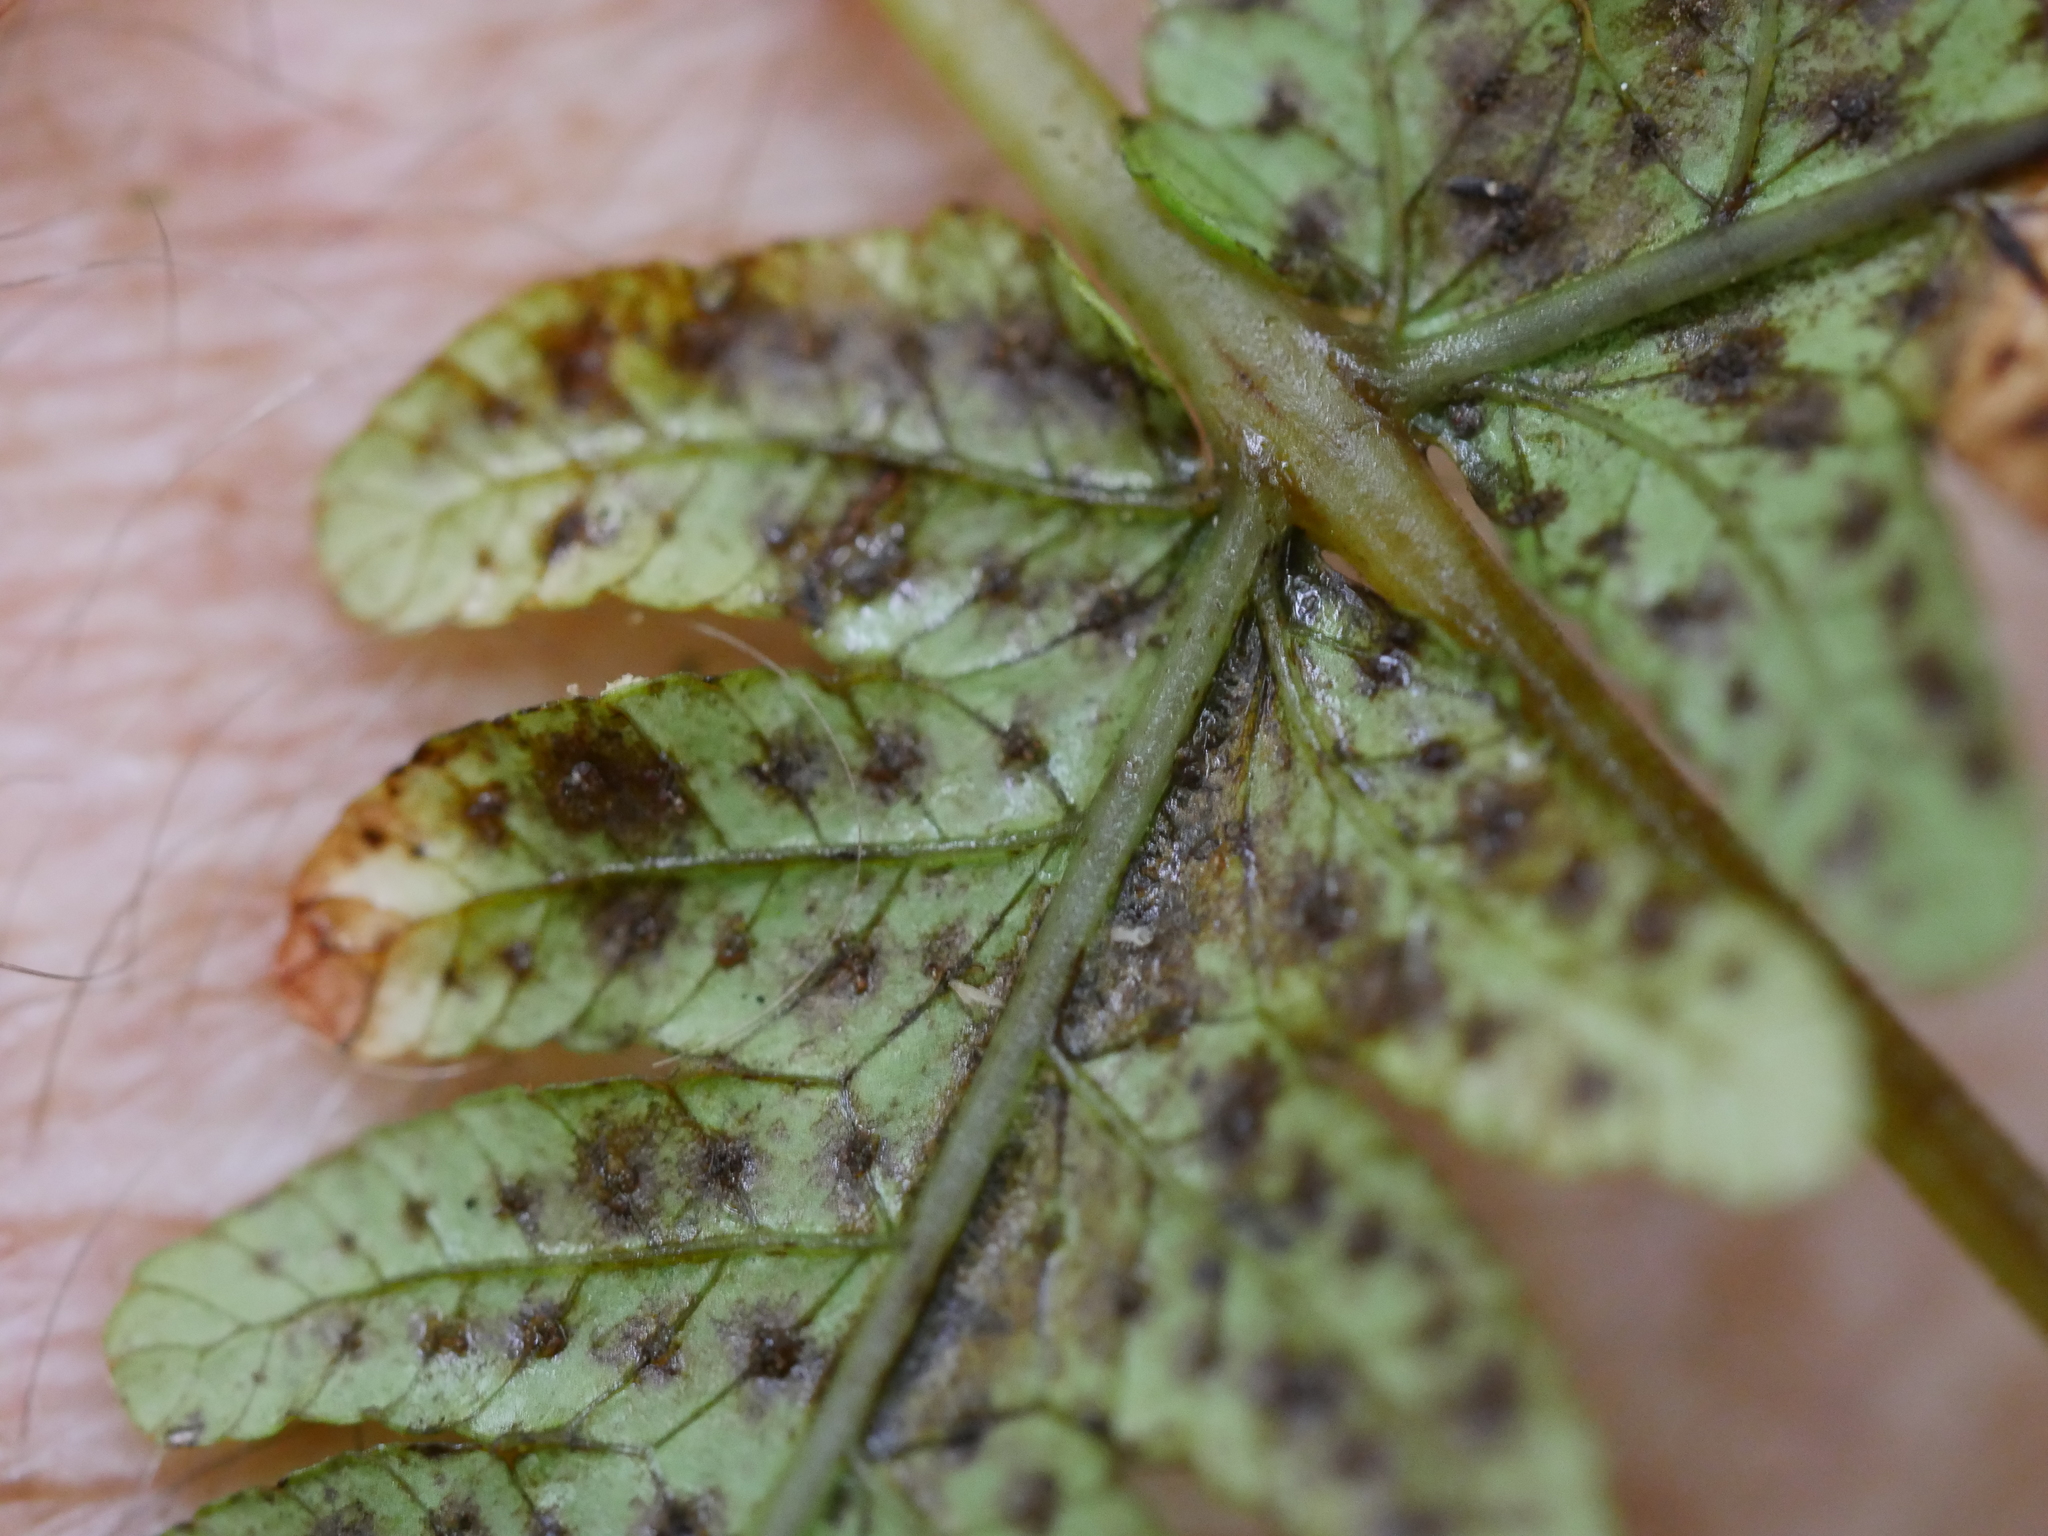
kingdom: Plantae
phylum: Tracheophyta
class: Polypodiopsida
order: Polypodiales
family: Thelypteridaceae
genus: Pakau
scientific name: Pakau pennigera
